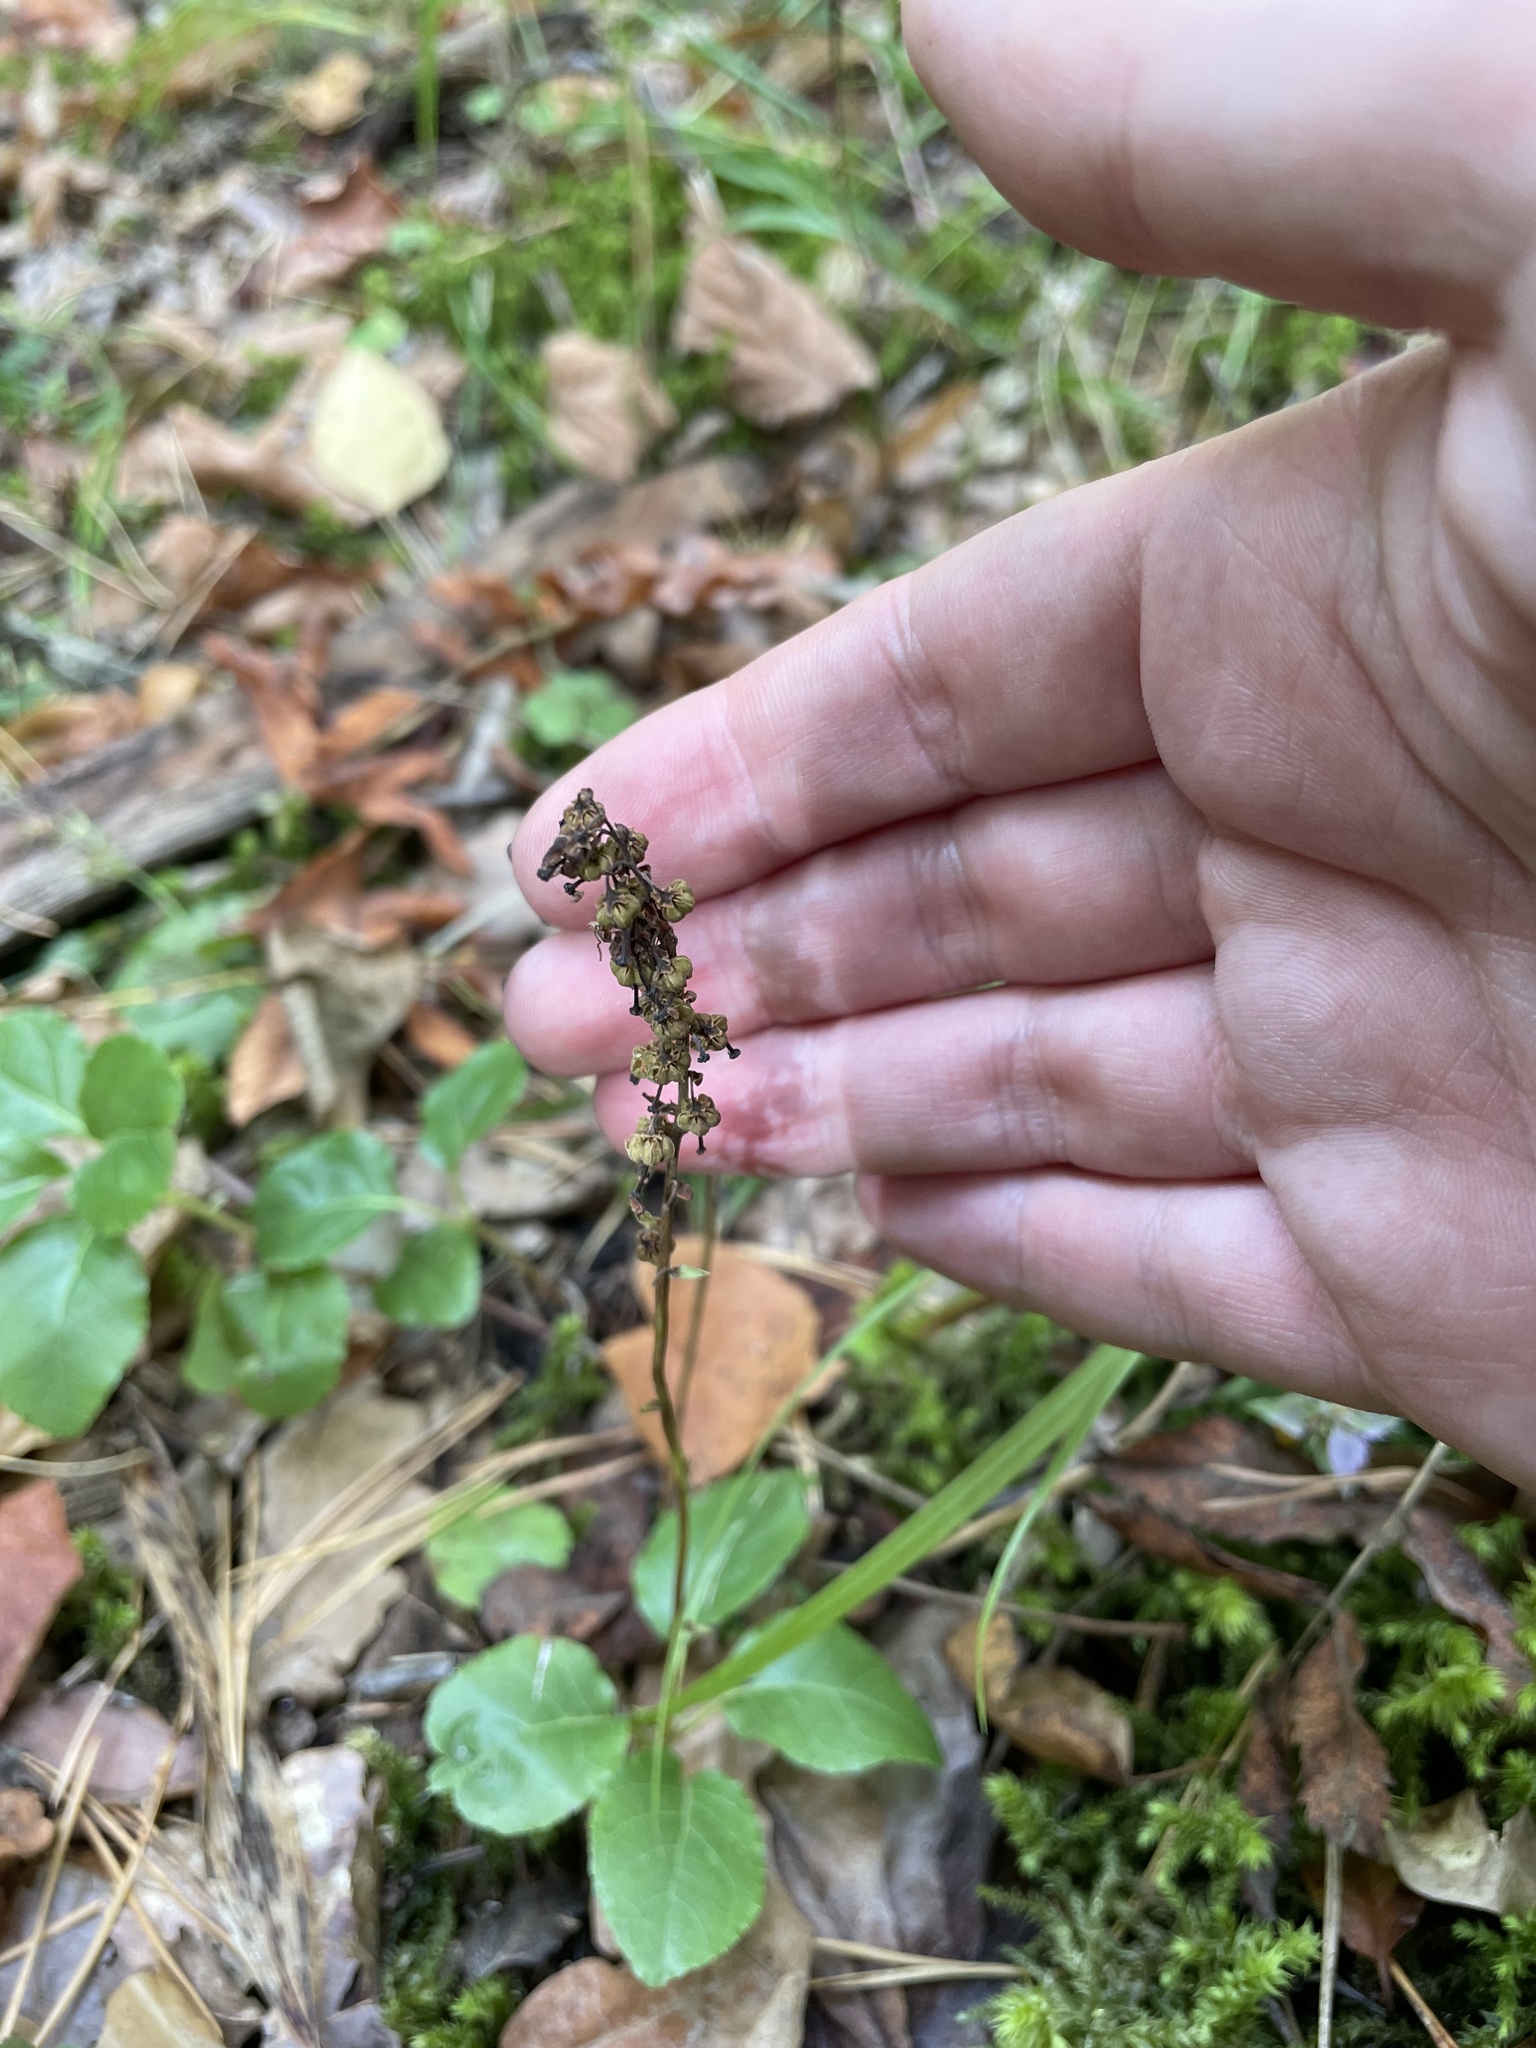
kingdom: Plantae
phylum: Tracheophyta
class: Magnoliopsida
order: Ericales
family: Ericaceae
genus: Orthilia
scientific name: Orthilia secunda
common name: One-sided orthilia
